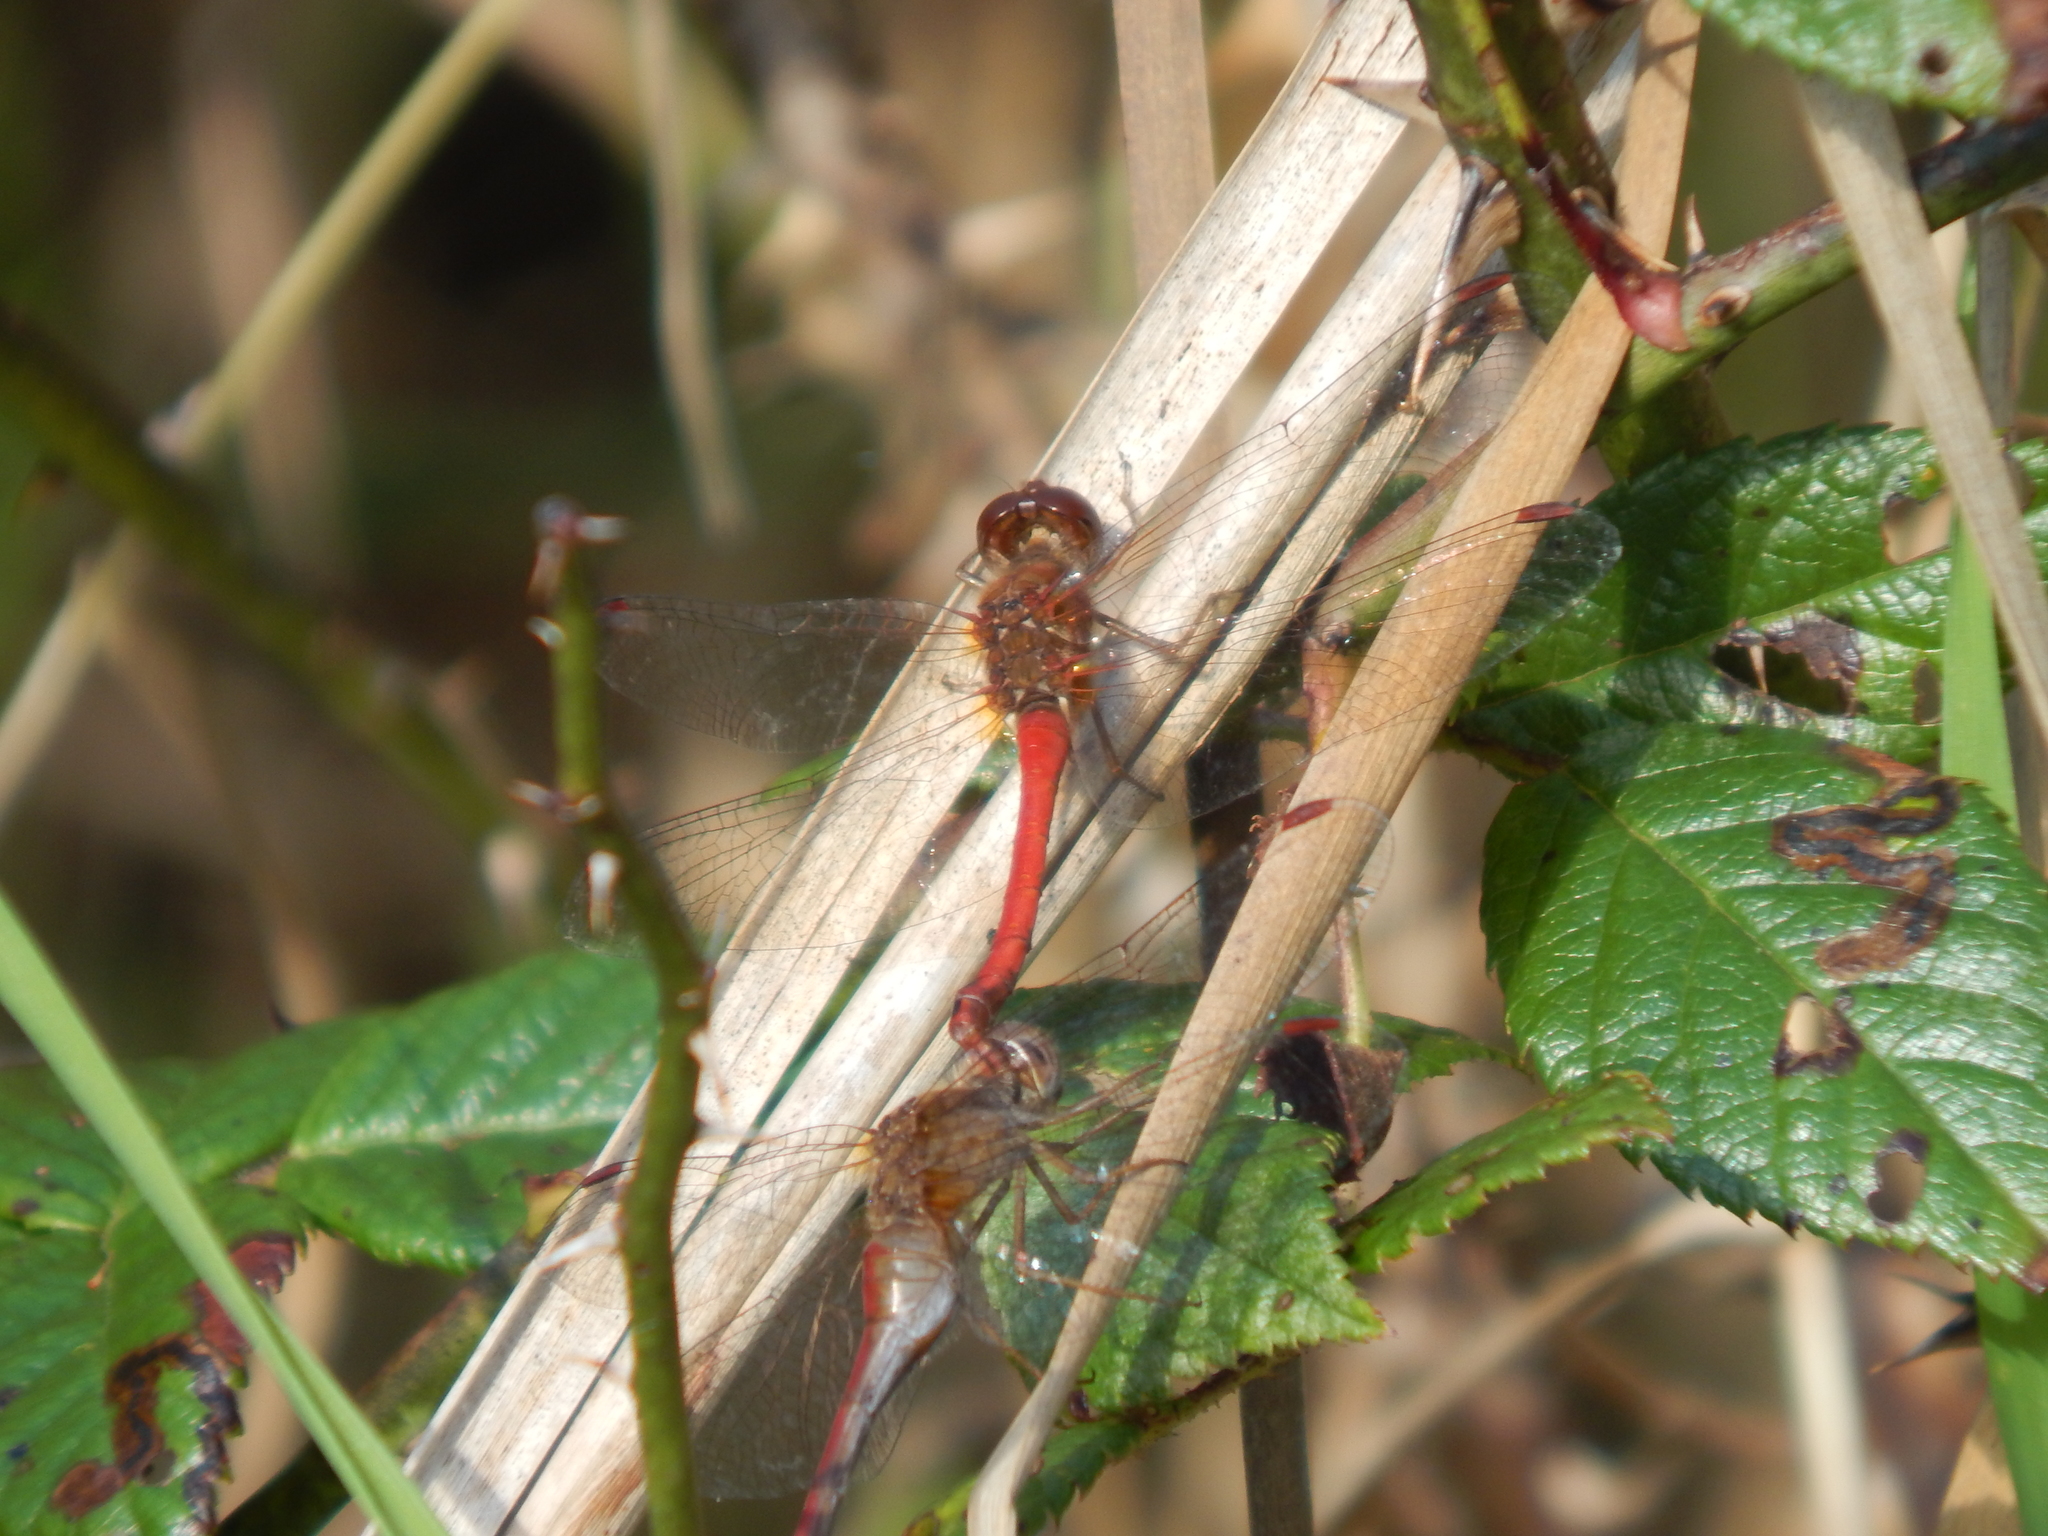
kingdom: Animalia
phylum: Arthropoda
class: Insecta
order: Odonata
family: Libellulidae
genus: Sympetrum
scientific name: Sympetrum vicinum
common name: Autumn meadowhawk
